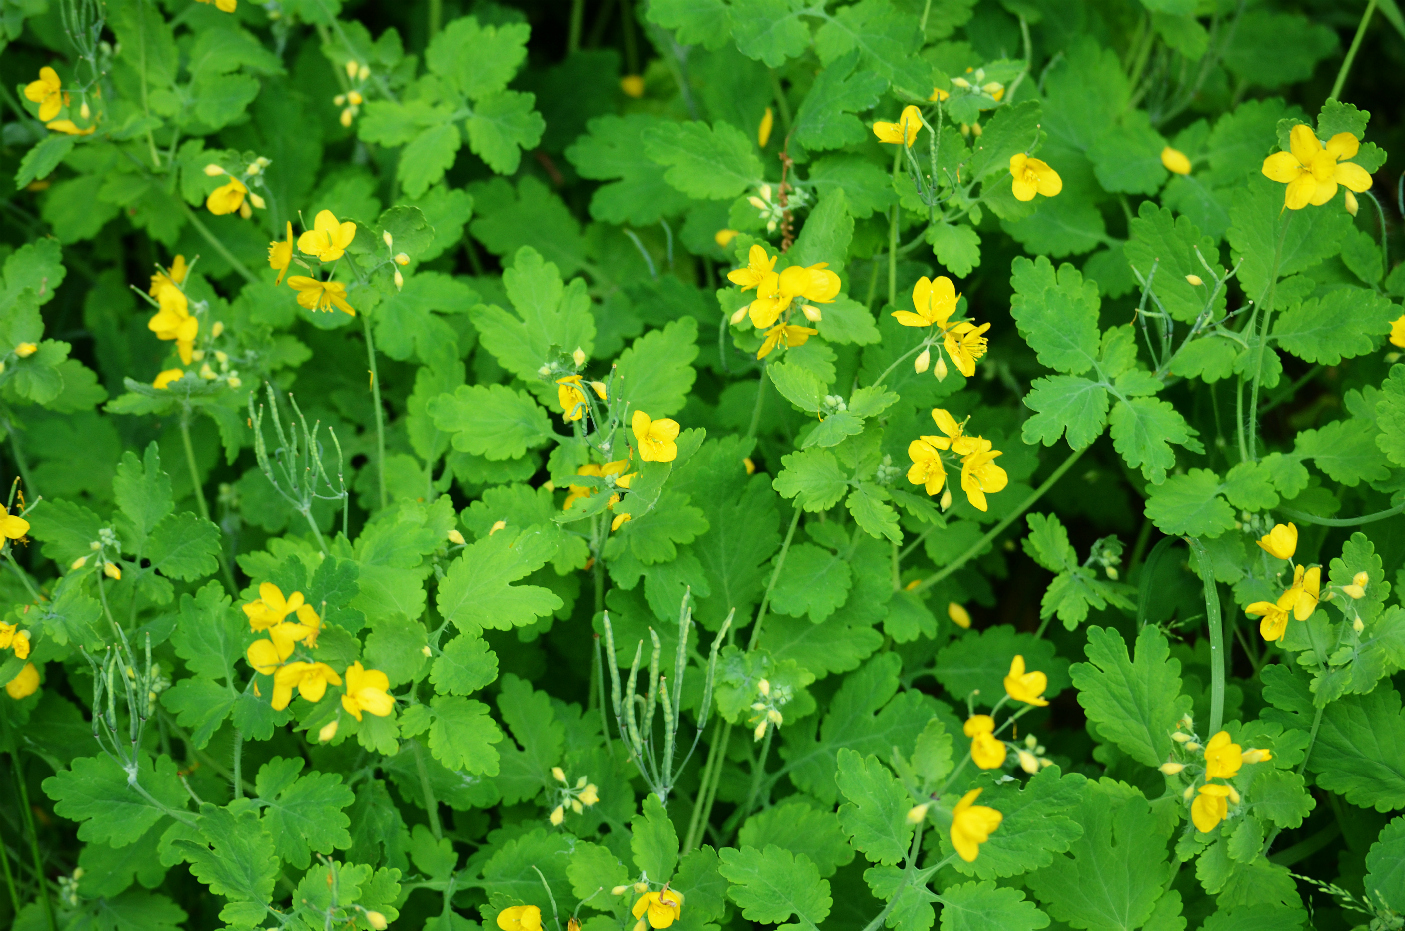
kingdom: Plantae
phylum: Tracheophyta
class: Magnoliopsida
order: Ranunculales
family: Papaveraceae
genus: Chelidonium
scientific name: Chelidonium majus
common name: Greater celandine
